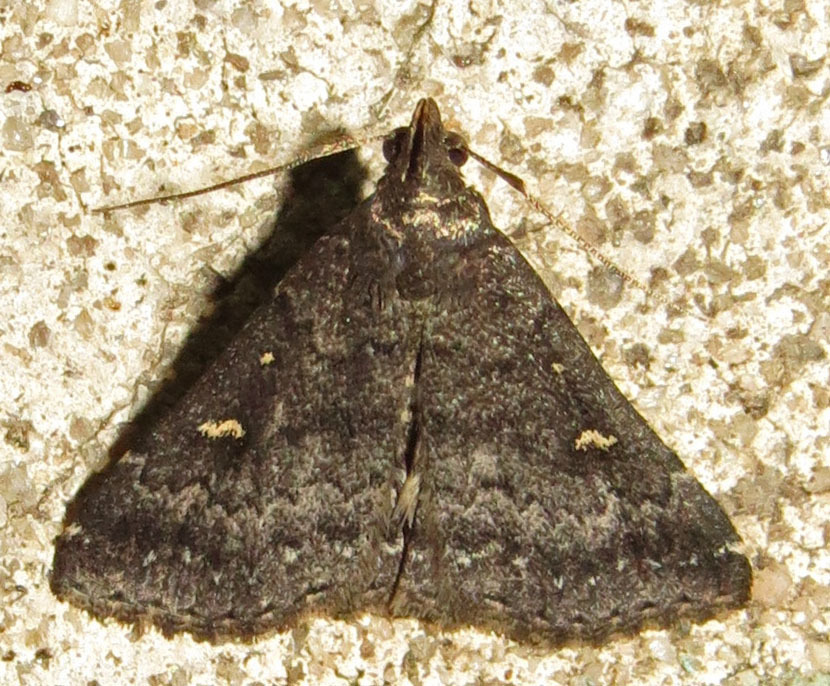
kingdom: Animalia
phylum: Arthropoda
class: Insecta
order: Lepidoptera
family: Erebidae
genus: Tetanolita
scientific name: Tetanolita mynesalis
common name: Smoky tetanolita moth
